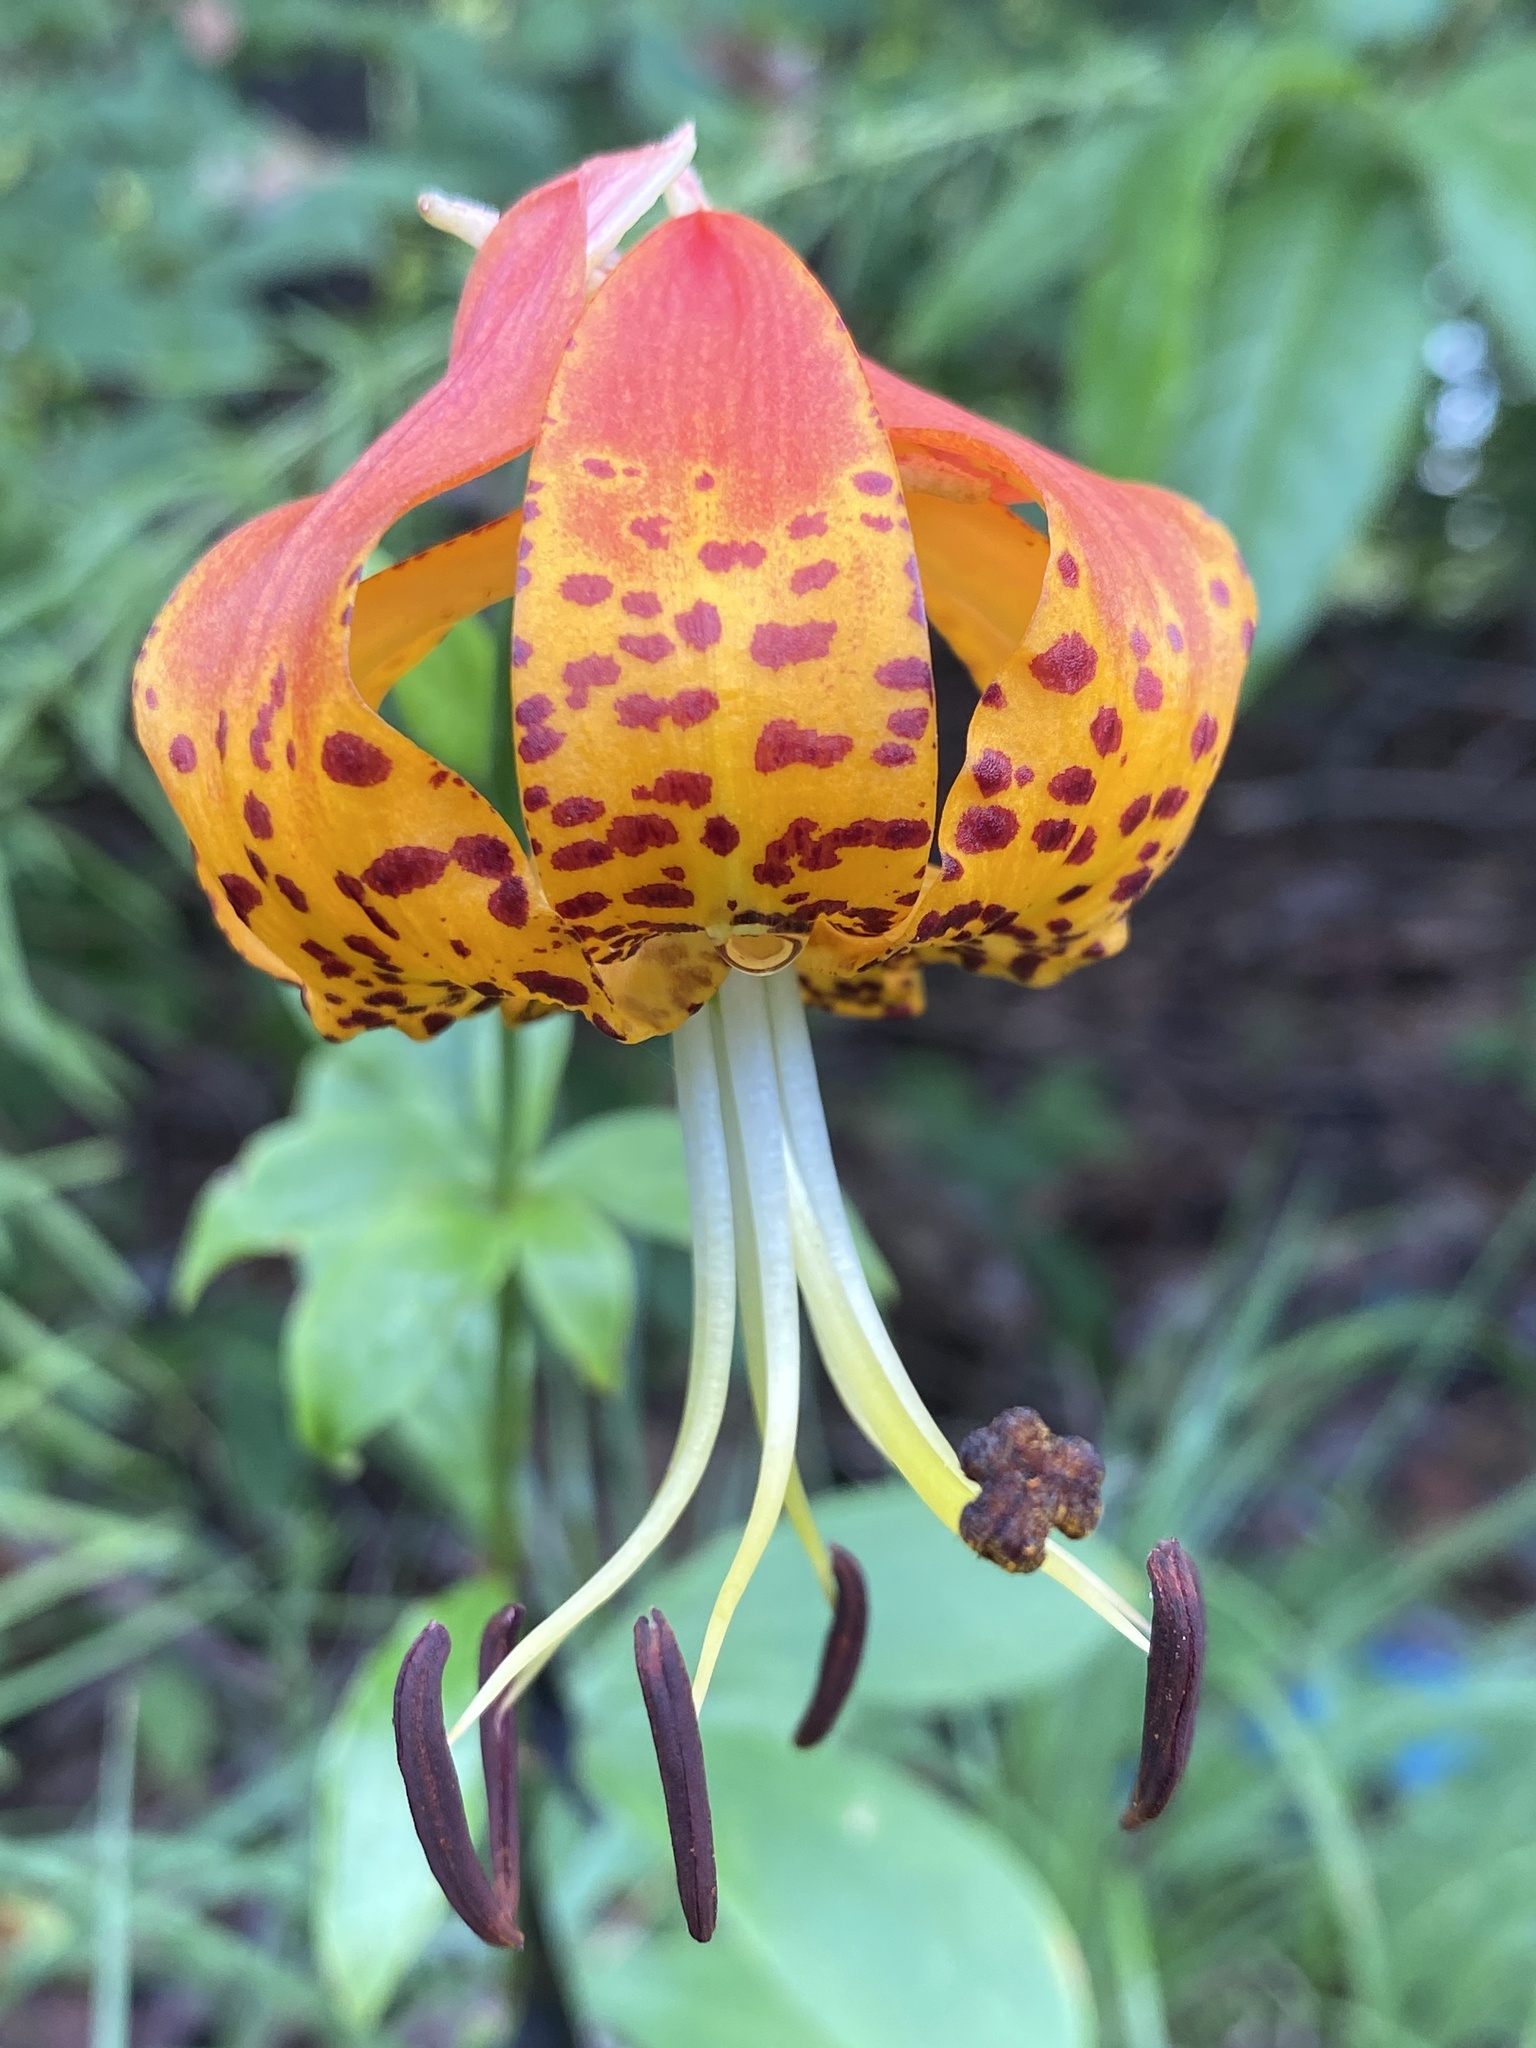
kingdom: Plantae
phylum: Tracheophyta
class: Liliopsida
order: Liliales
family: Liliaceae
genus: Lilium
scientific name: Lilium michauxii
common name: Carolina lily
